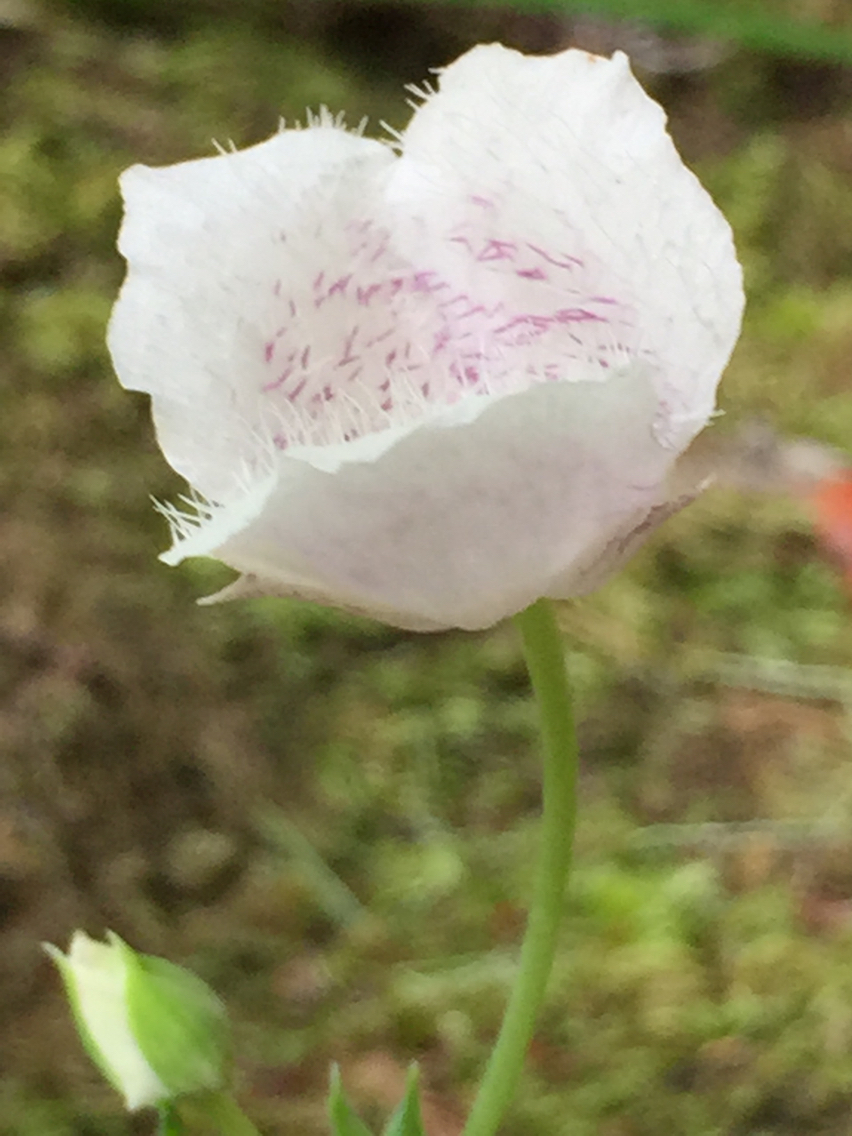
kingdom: Plantae
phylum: Tracheophyta
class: Liliopsida
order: Liliales
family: Liliaceae
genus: Calochortus
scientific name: Calochortus tolmiei
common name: Pussy-ears
